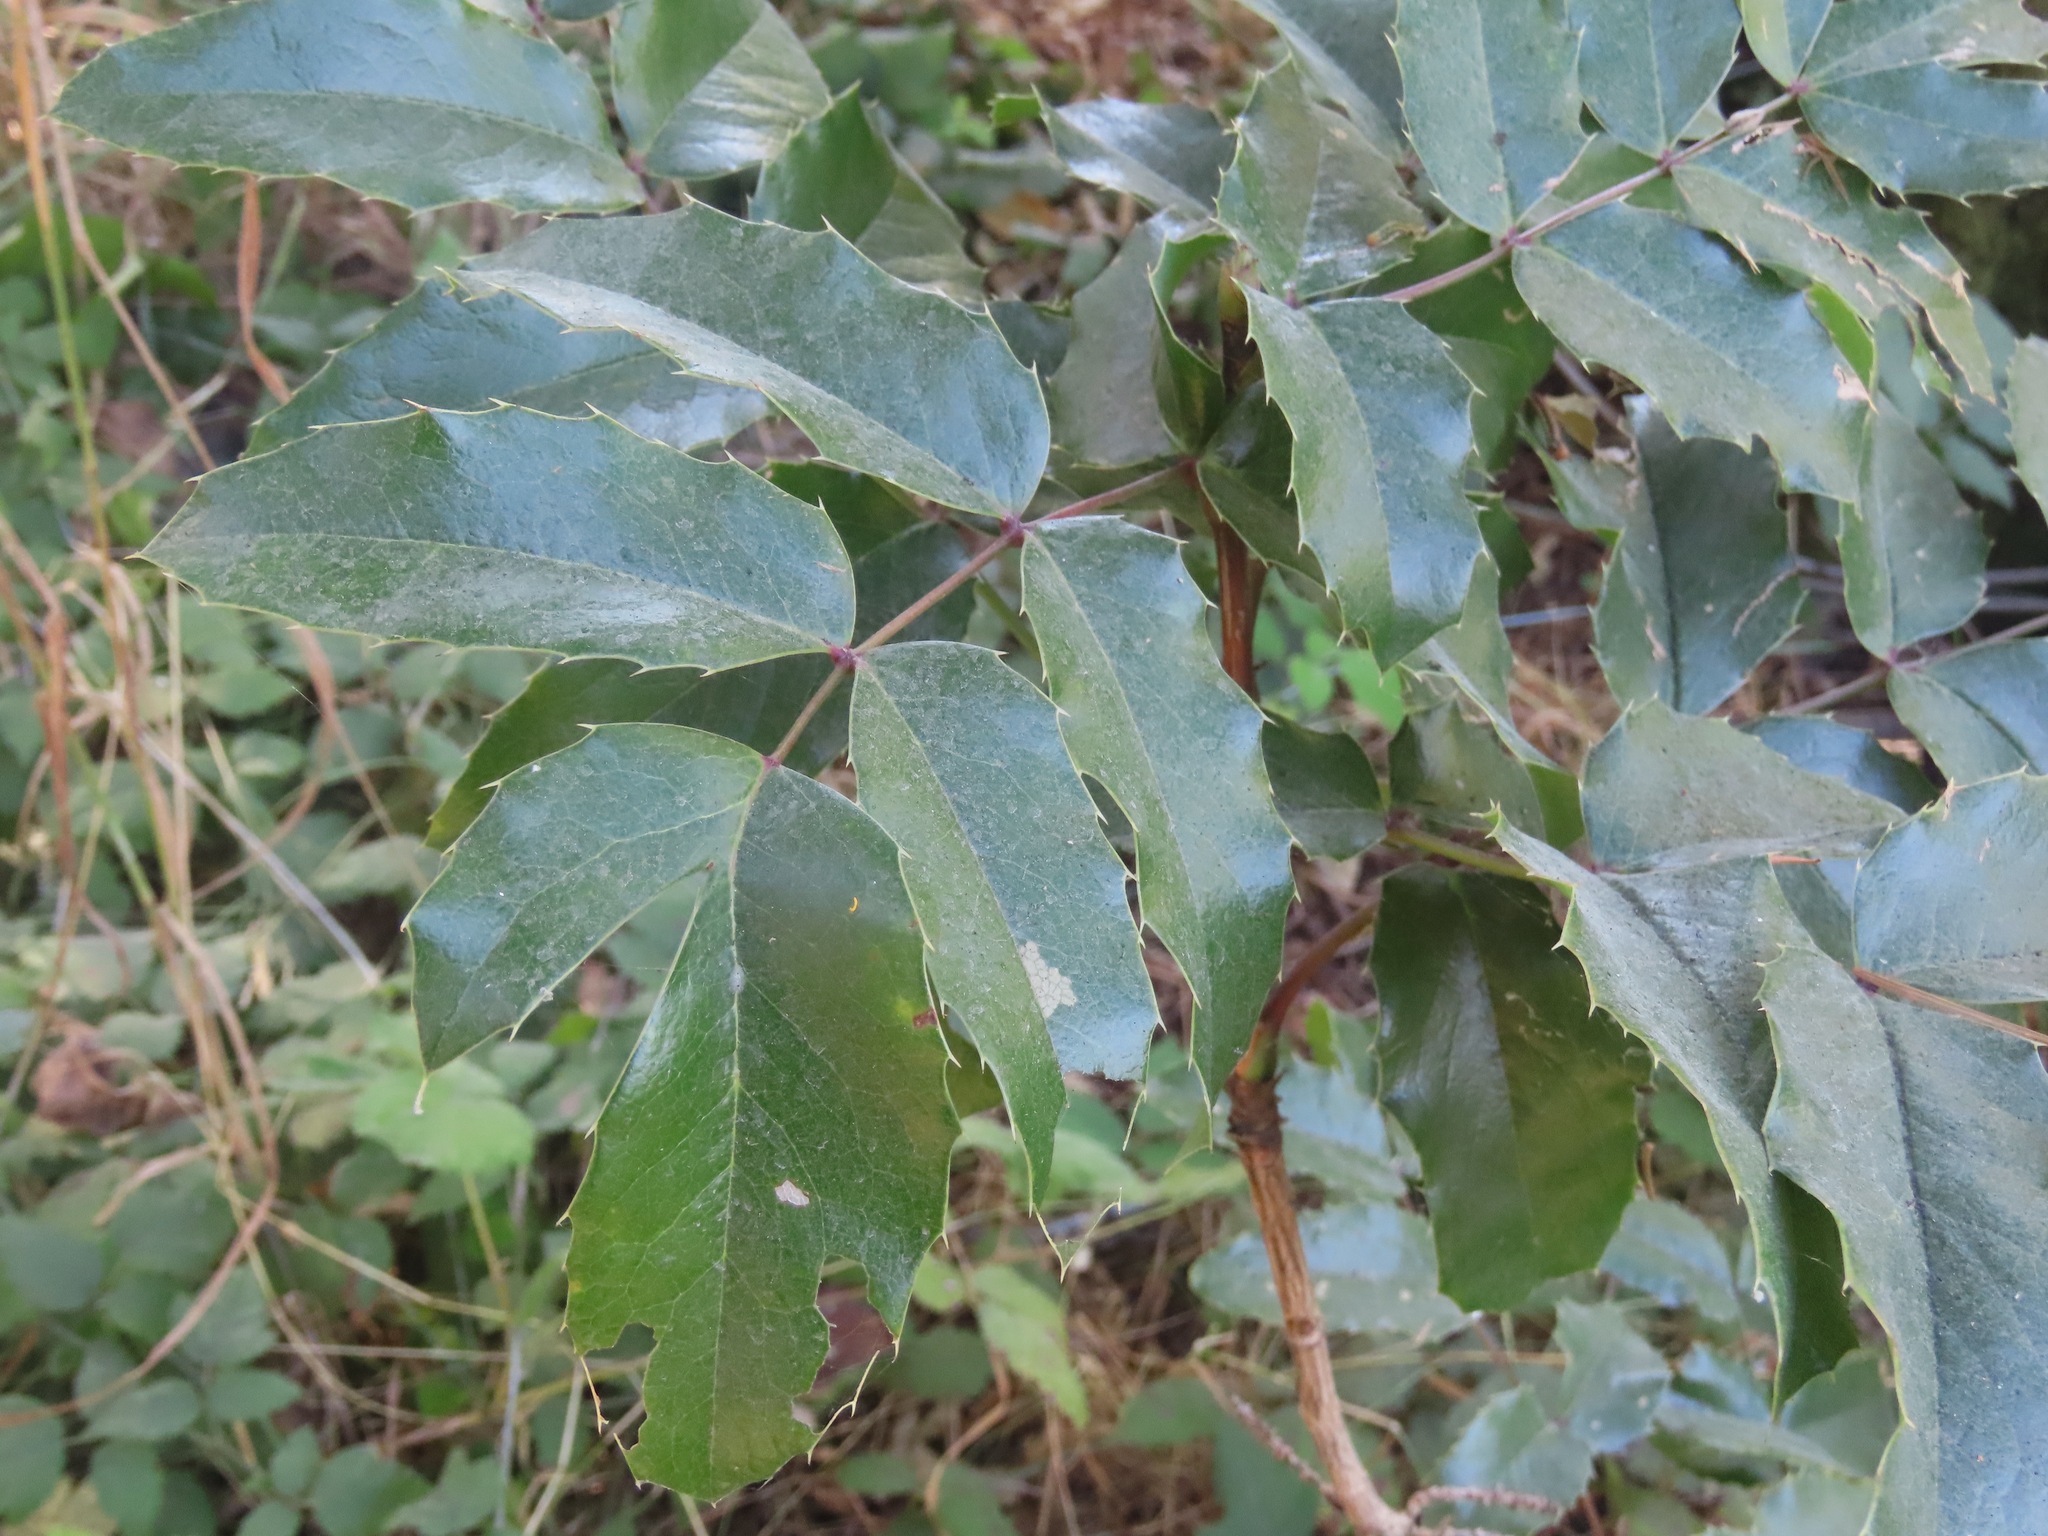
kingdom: Plantae
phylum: Tracheophyta
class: Magnoliopsida
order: Ranunculales
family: Berberidaceae
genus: Mahonia
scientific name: Mahonia aquifolium
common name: Oregon-grape
